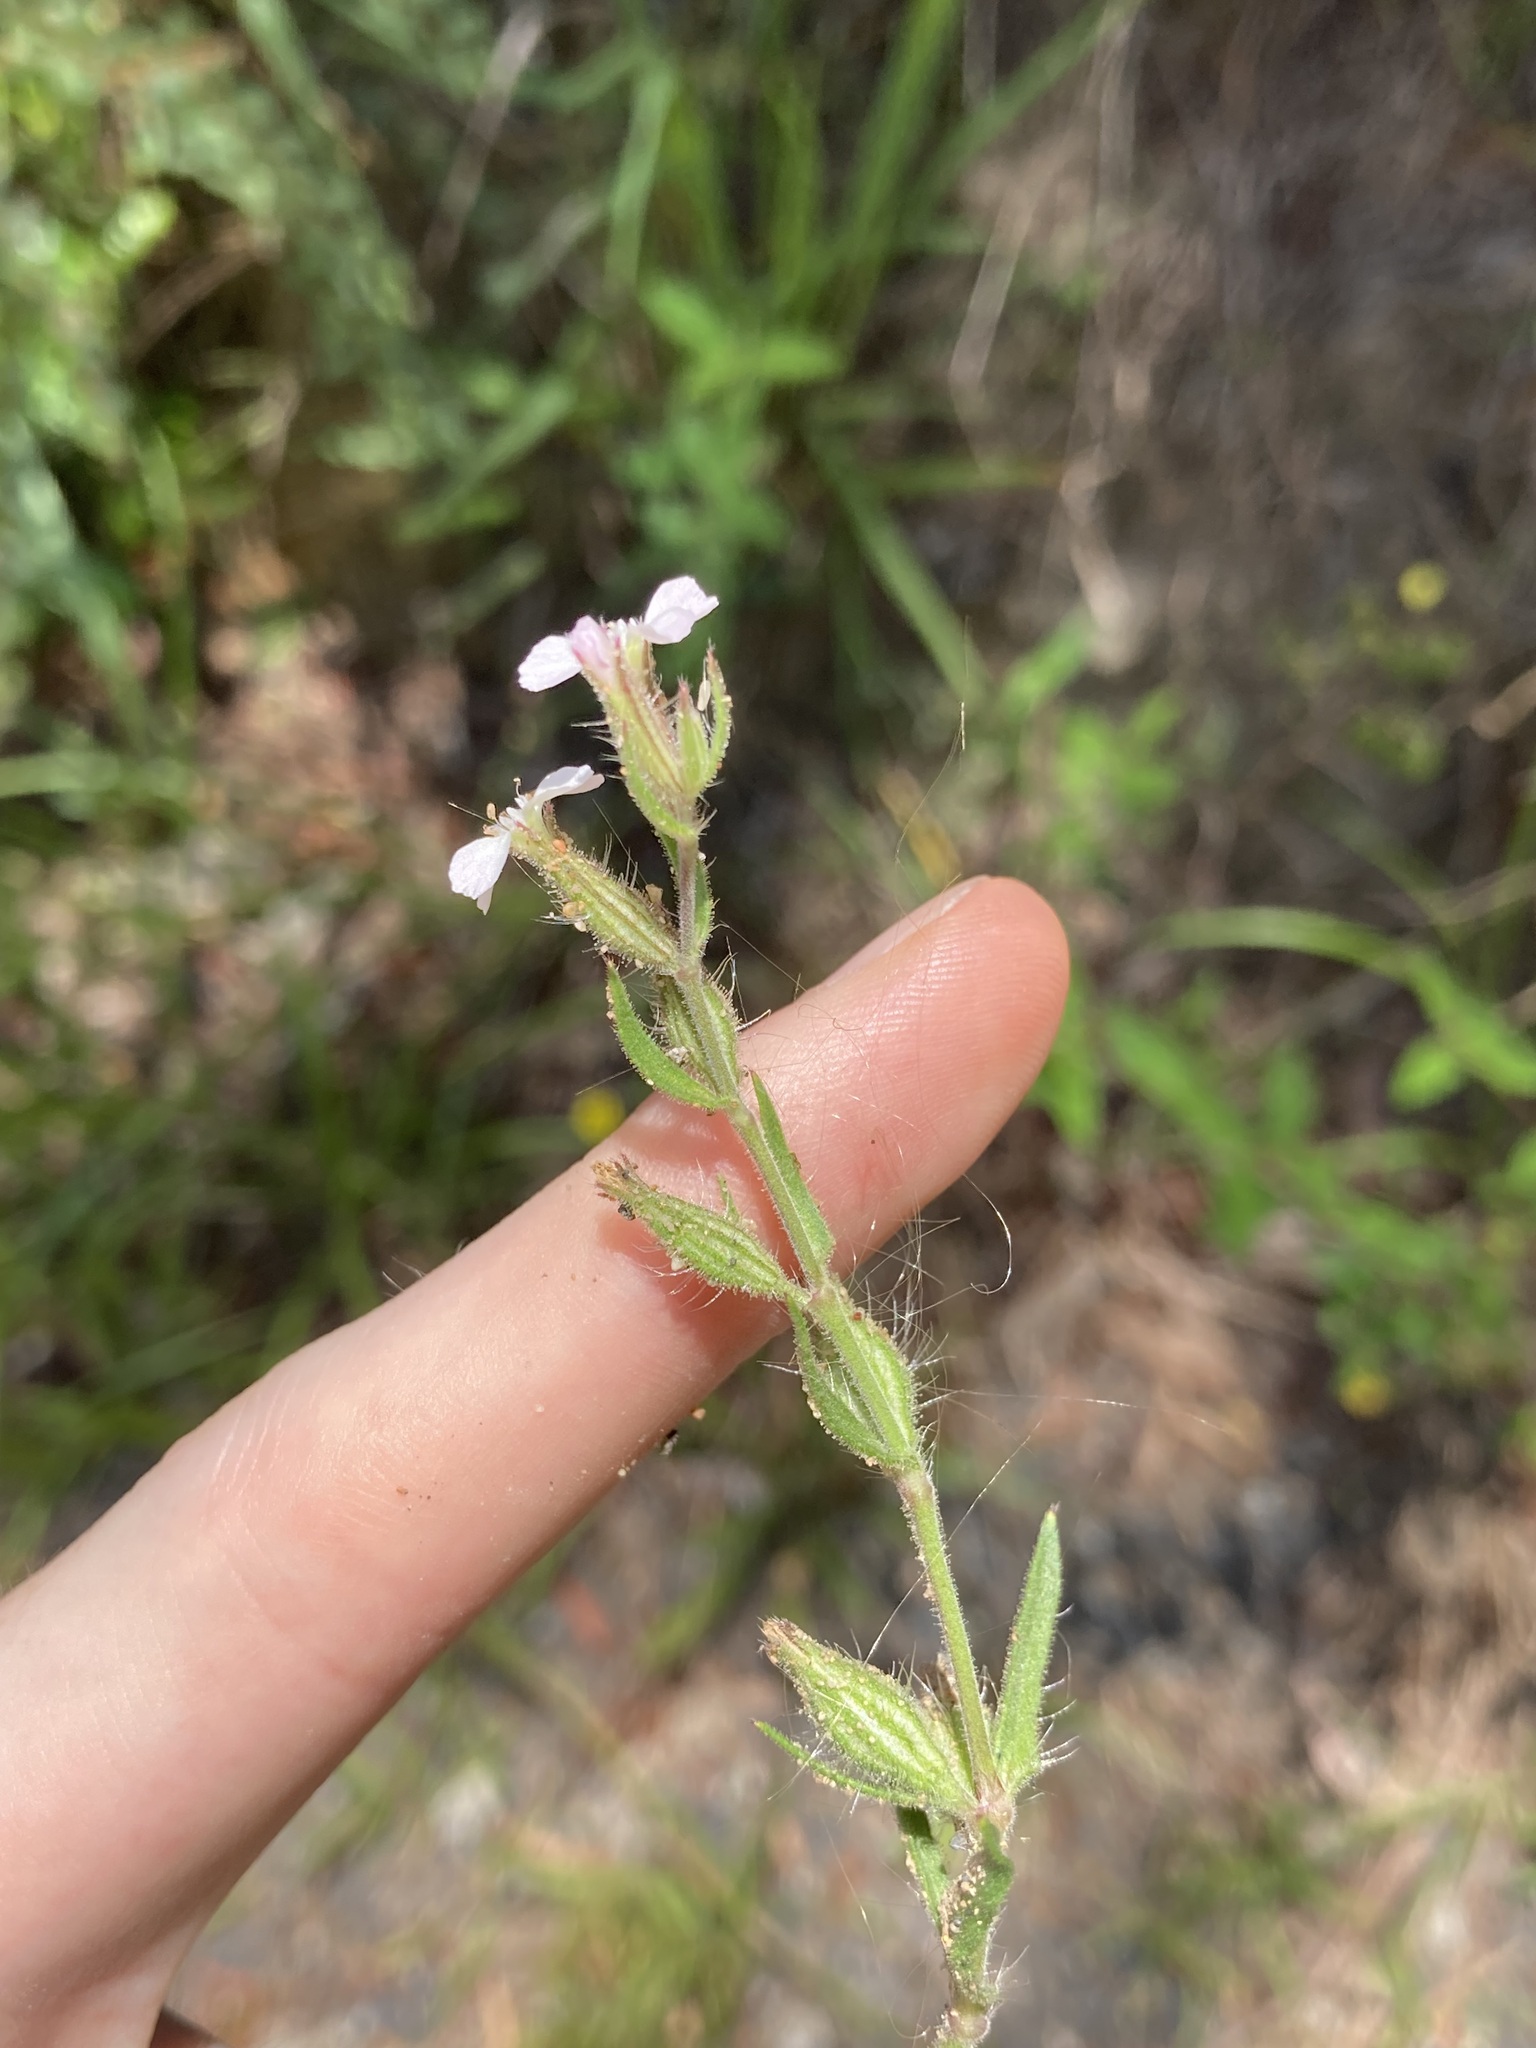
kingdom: Plantae
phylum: Tracheophyta
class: Magnoliopsida
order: Caryophyllales
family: Caryophyllaceae
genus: Silene
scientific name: Silene gallica
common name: Small-flowered catchfly
